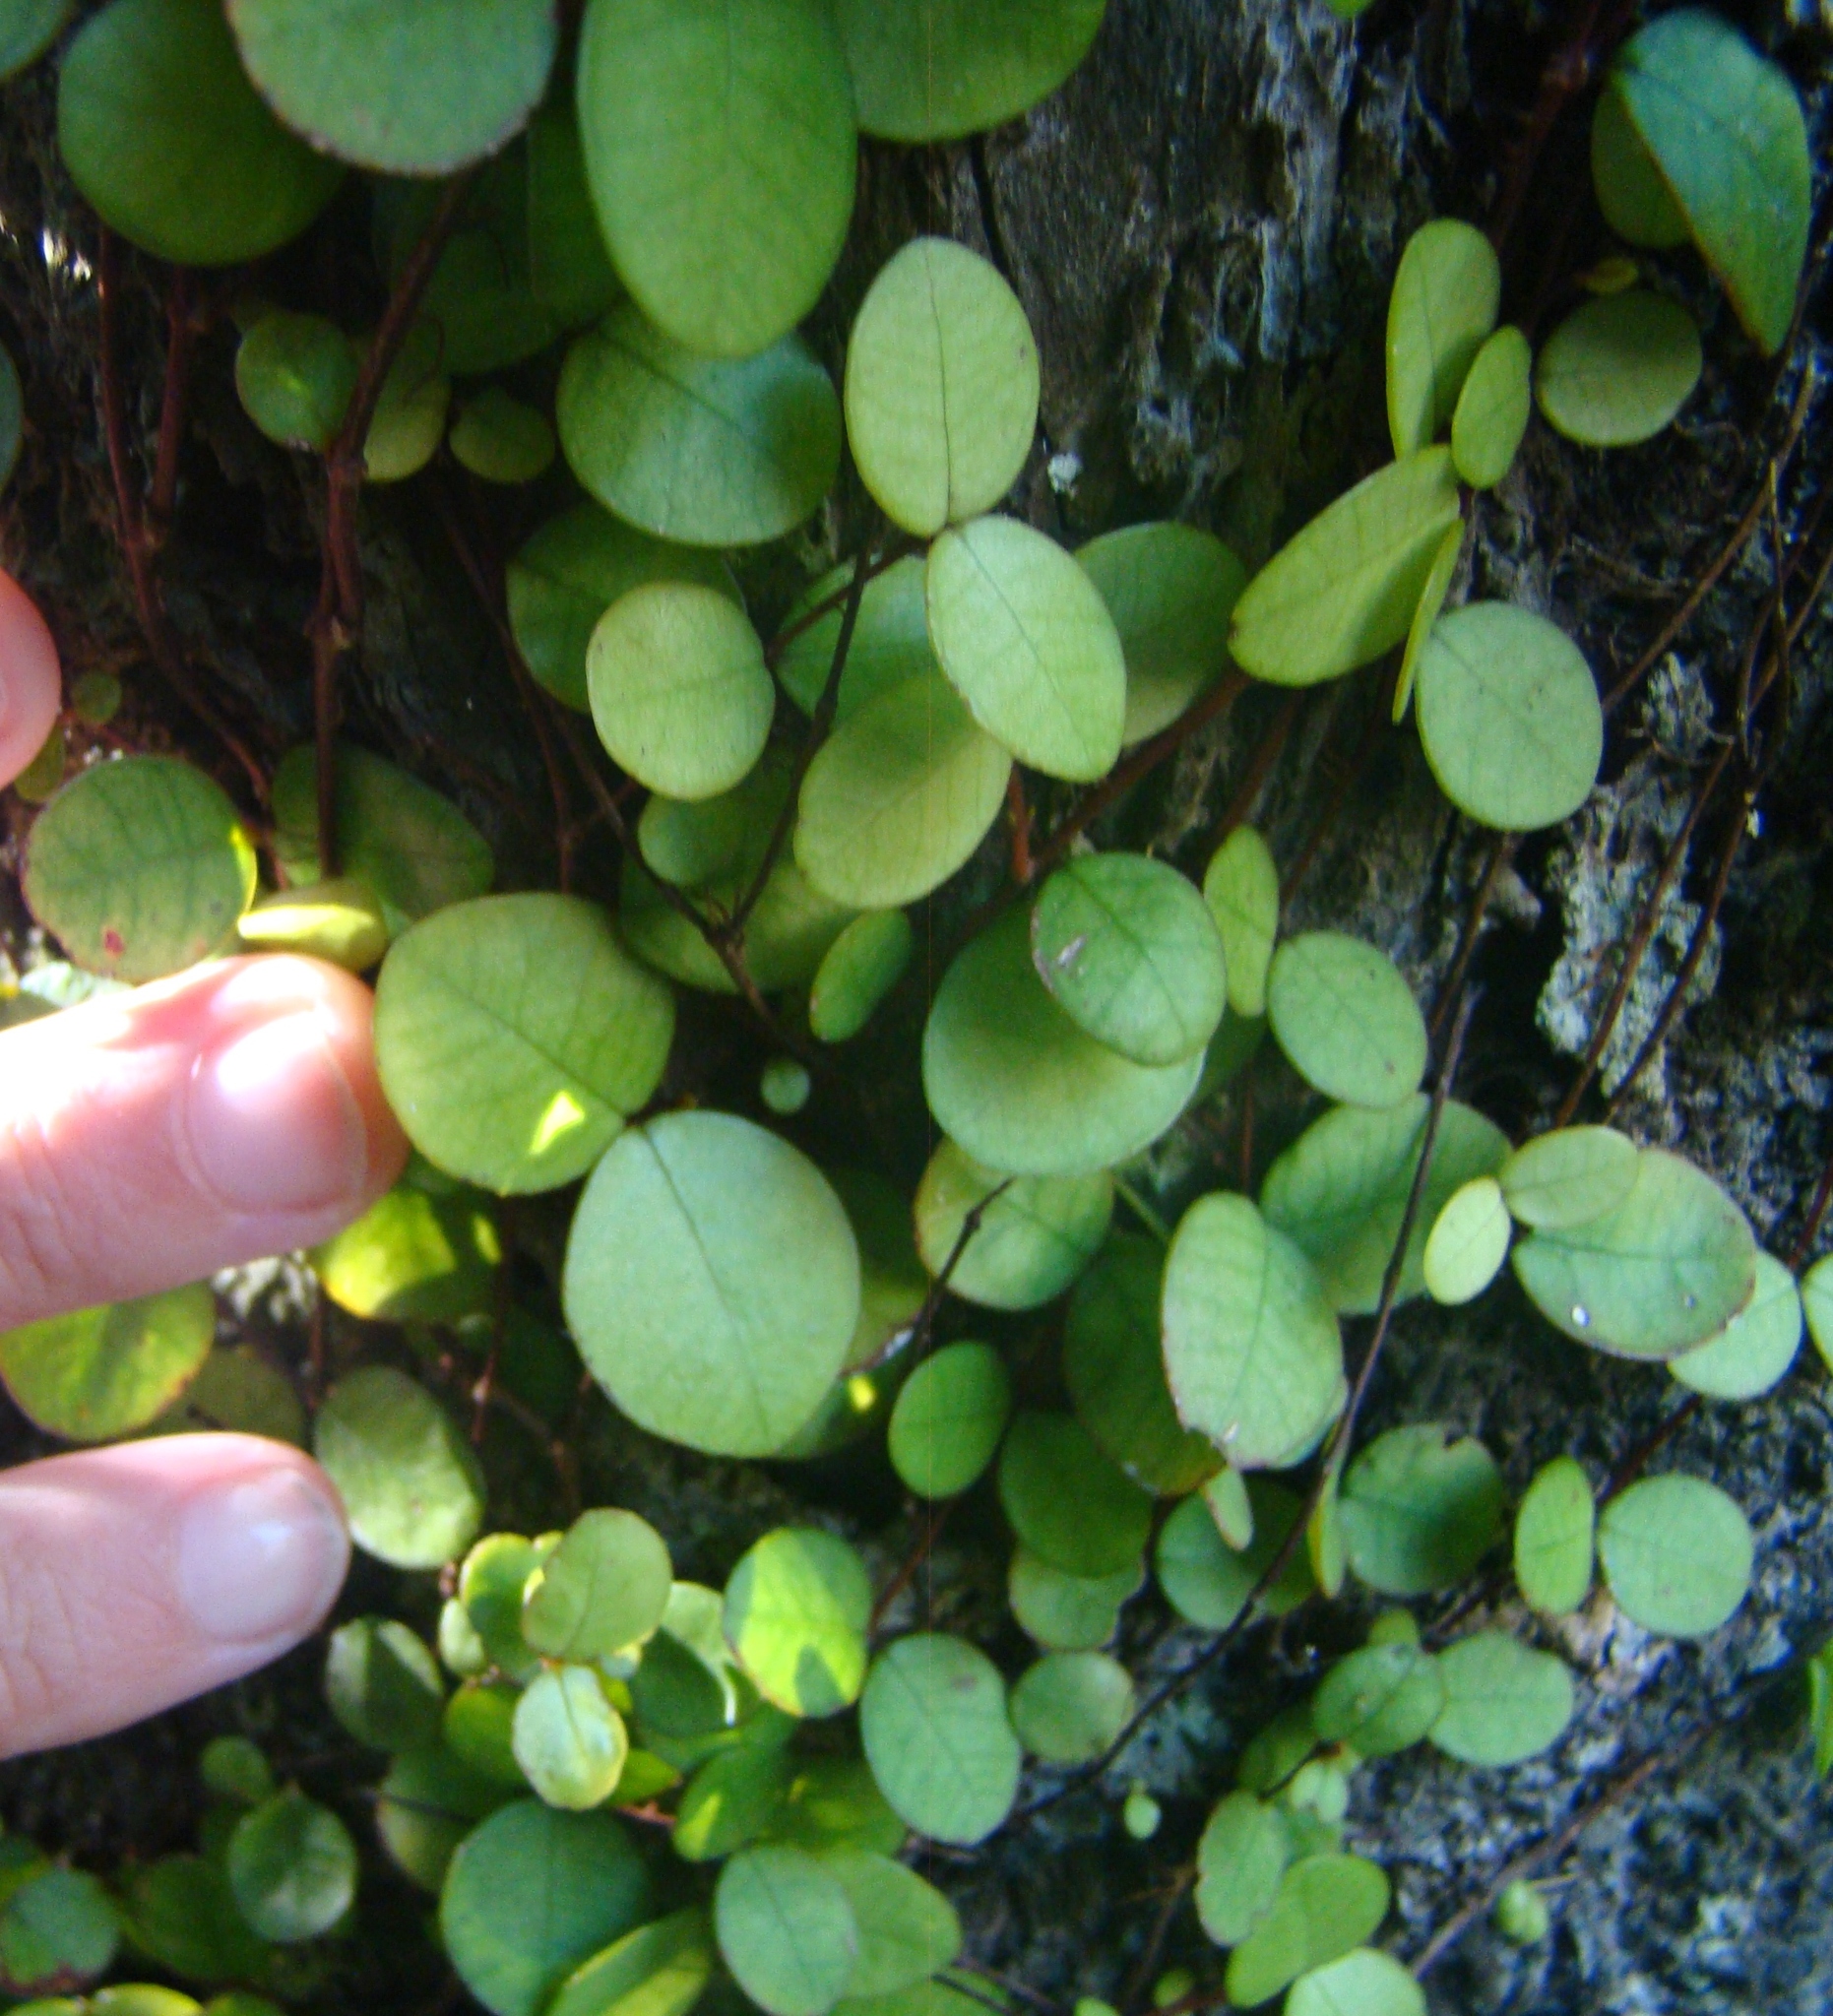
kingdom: Plantae
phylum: Tracheophyta
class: Magnoliopsida
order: Myrtales
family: Myrtaceae
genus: Metrosideros
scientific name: Metrosideros fulgens
